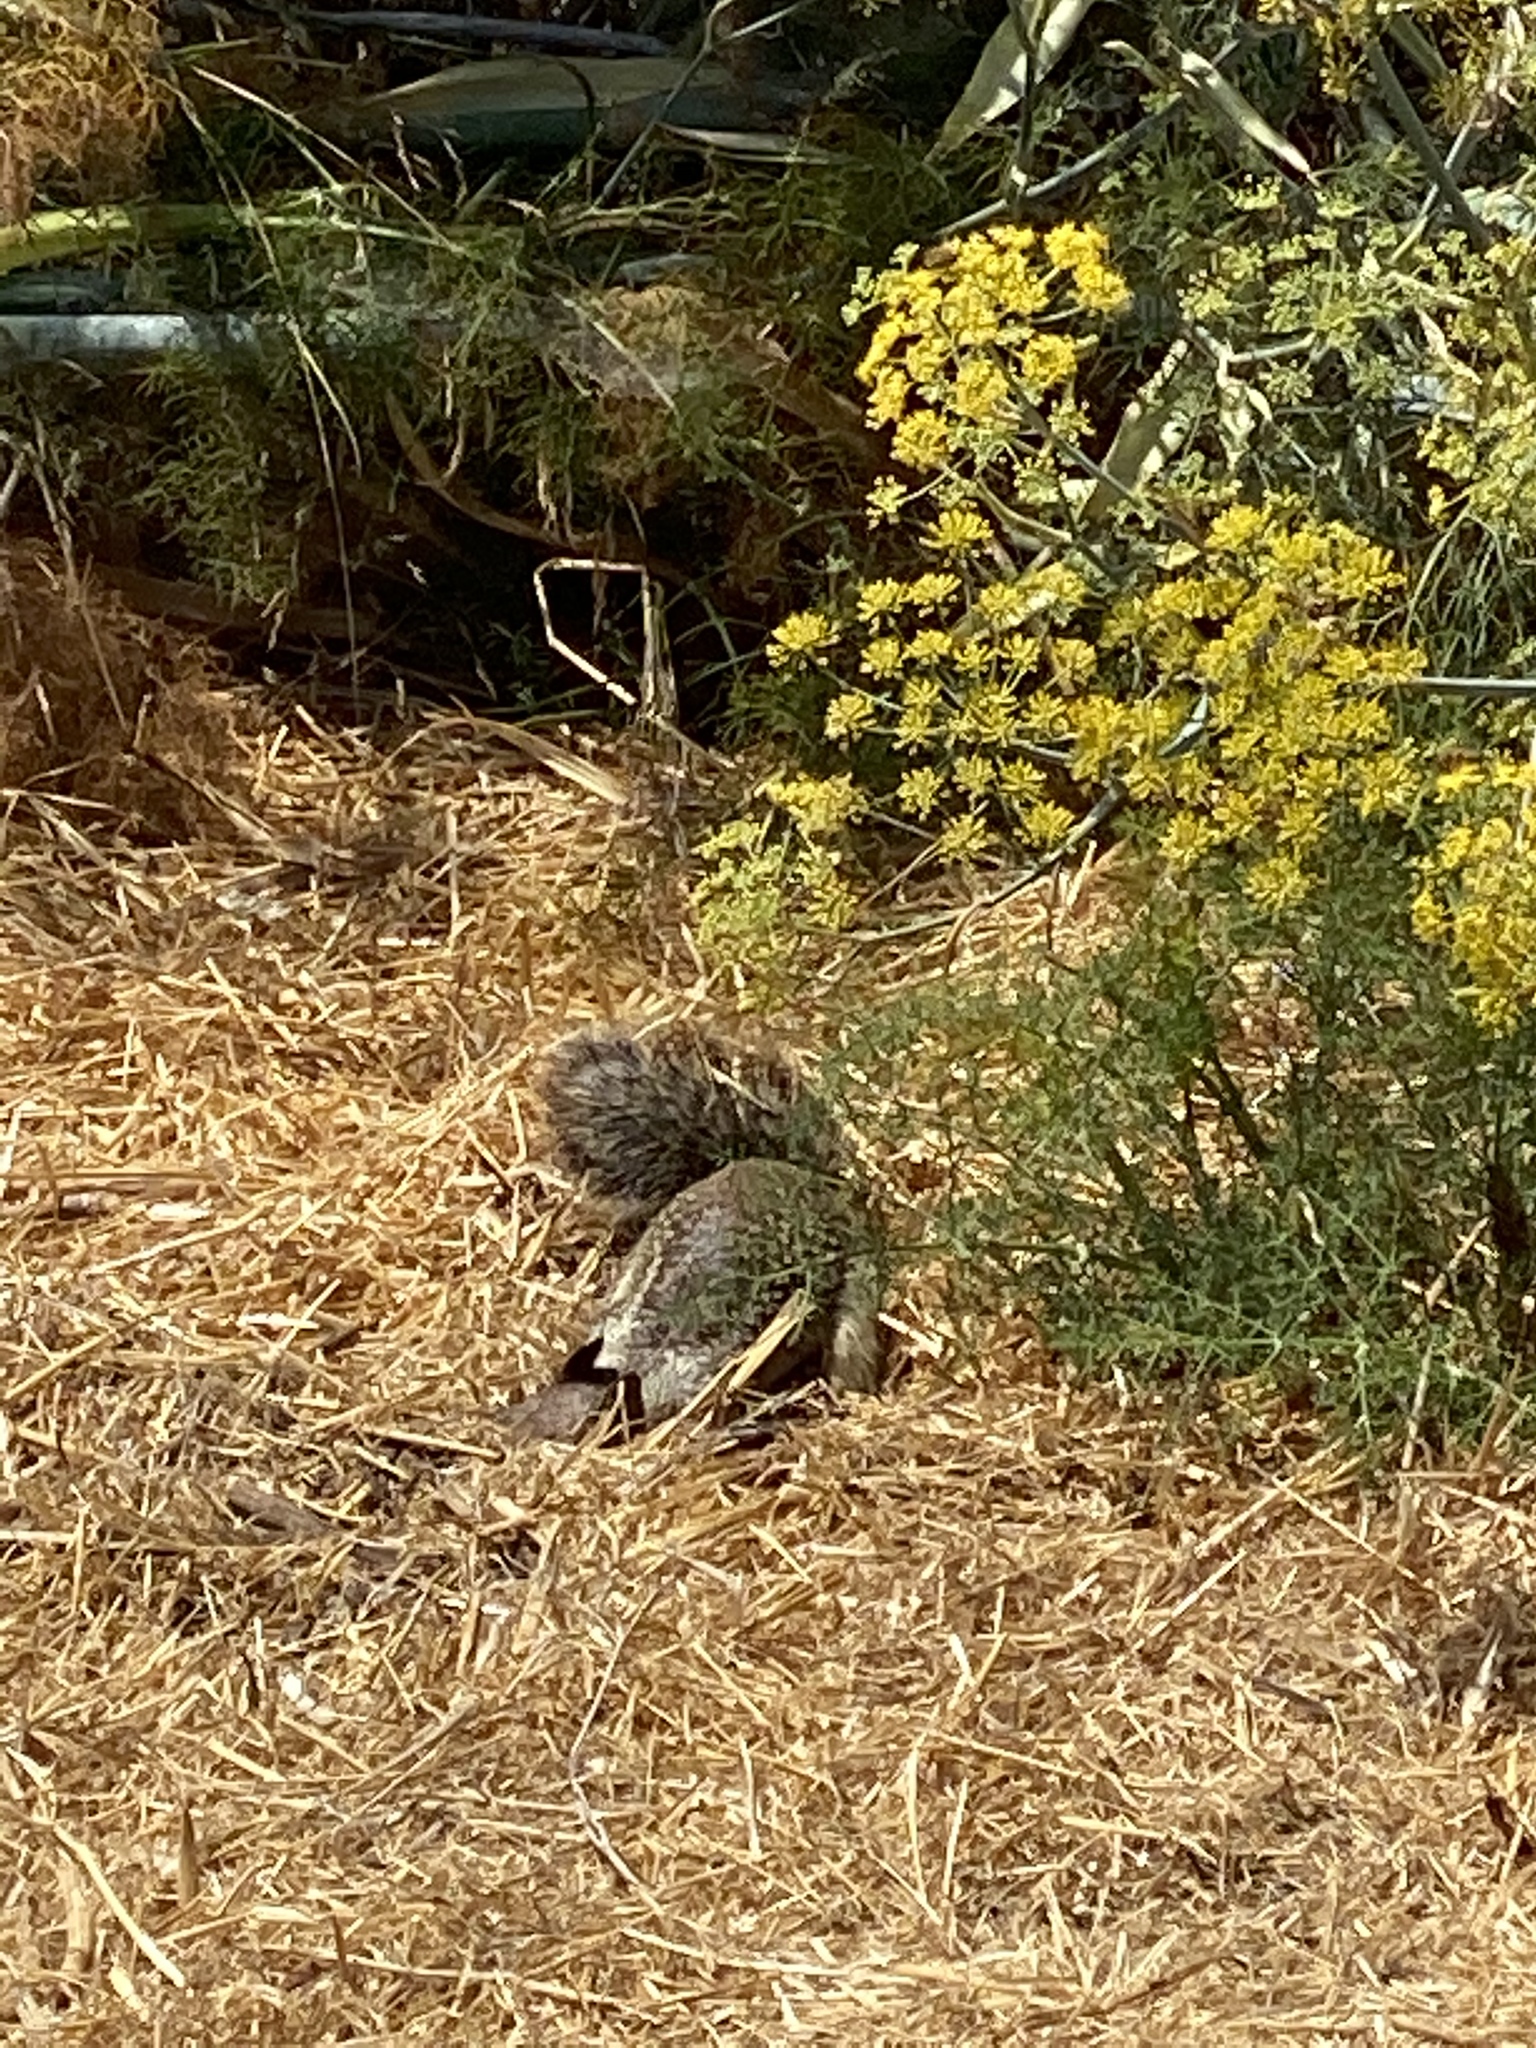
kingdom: Animalia
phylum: Chordata
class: Mammalia
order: Rodentia
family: Sciuridae
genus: Otospermophilus
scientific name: Otospermophilus beecheyi
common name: California ground squirrel
